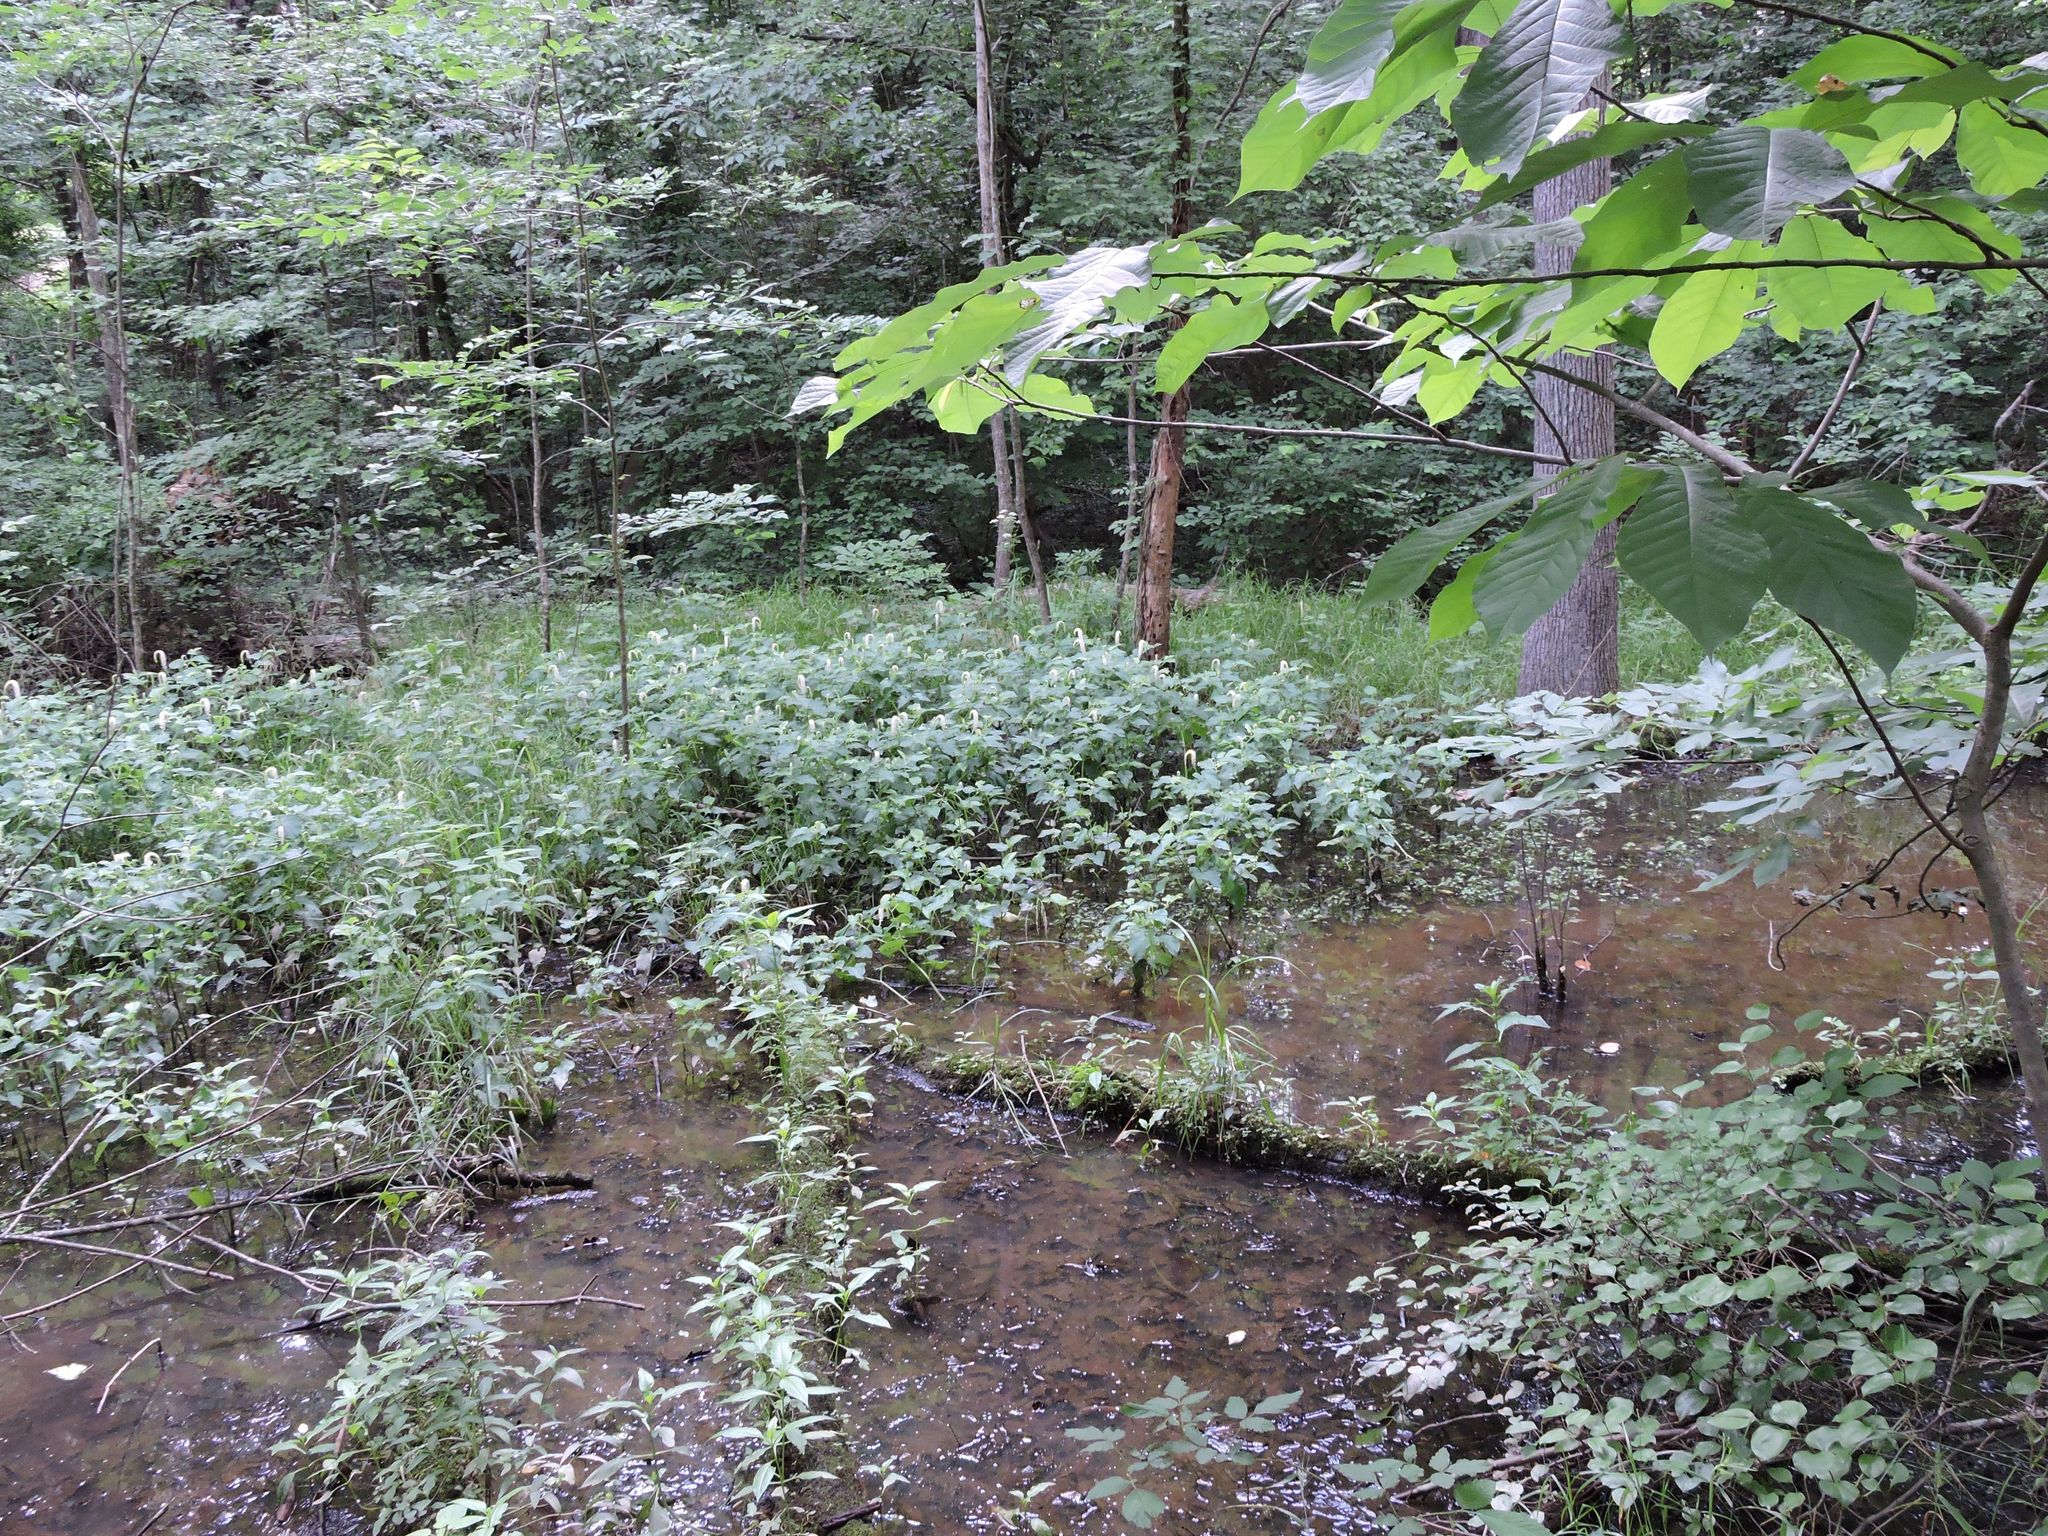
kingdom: Plantae
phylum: Tracheophyta
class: Magnoliopsida
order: Piperales
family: Saururaceae
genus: Saururus
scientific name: Saururus cernuus
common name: Lizard's-tail
